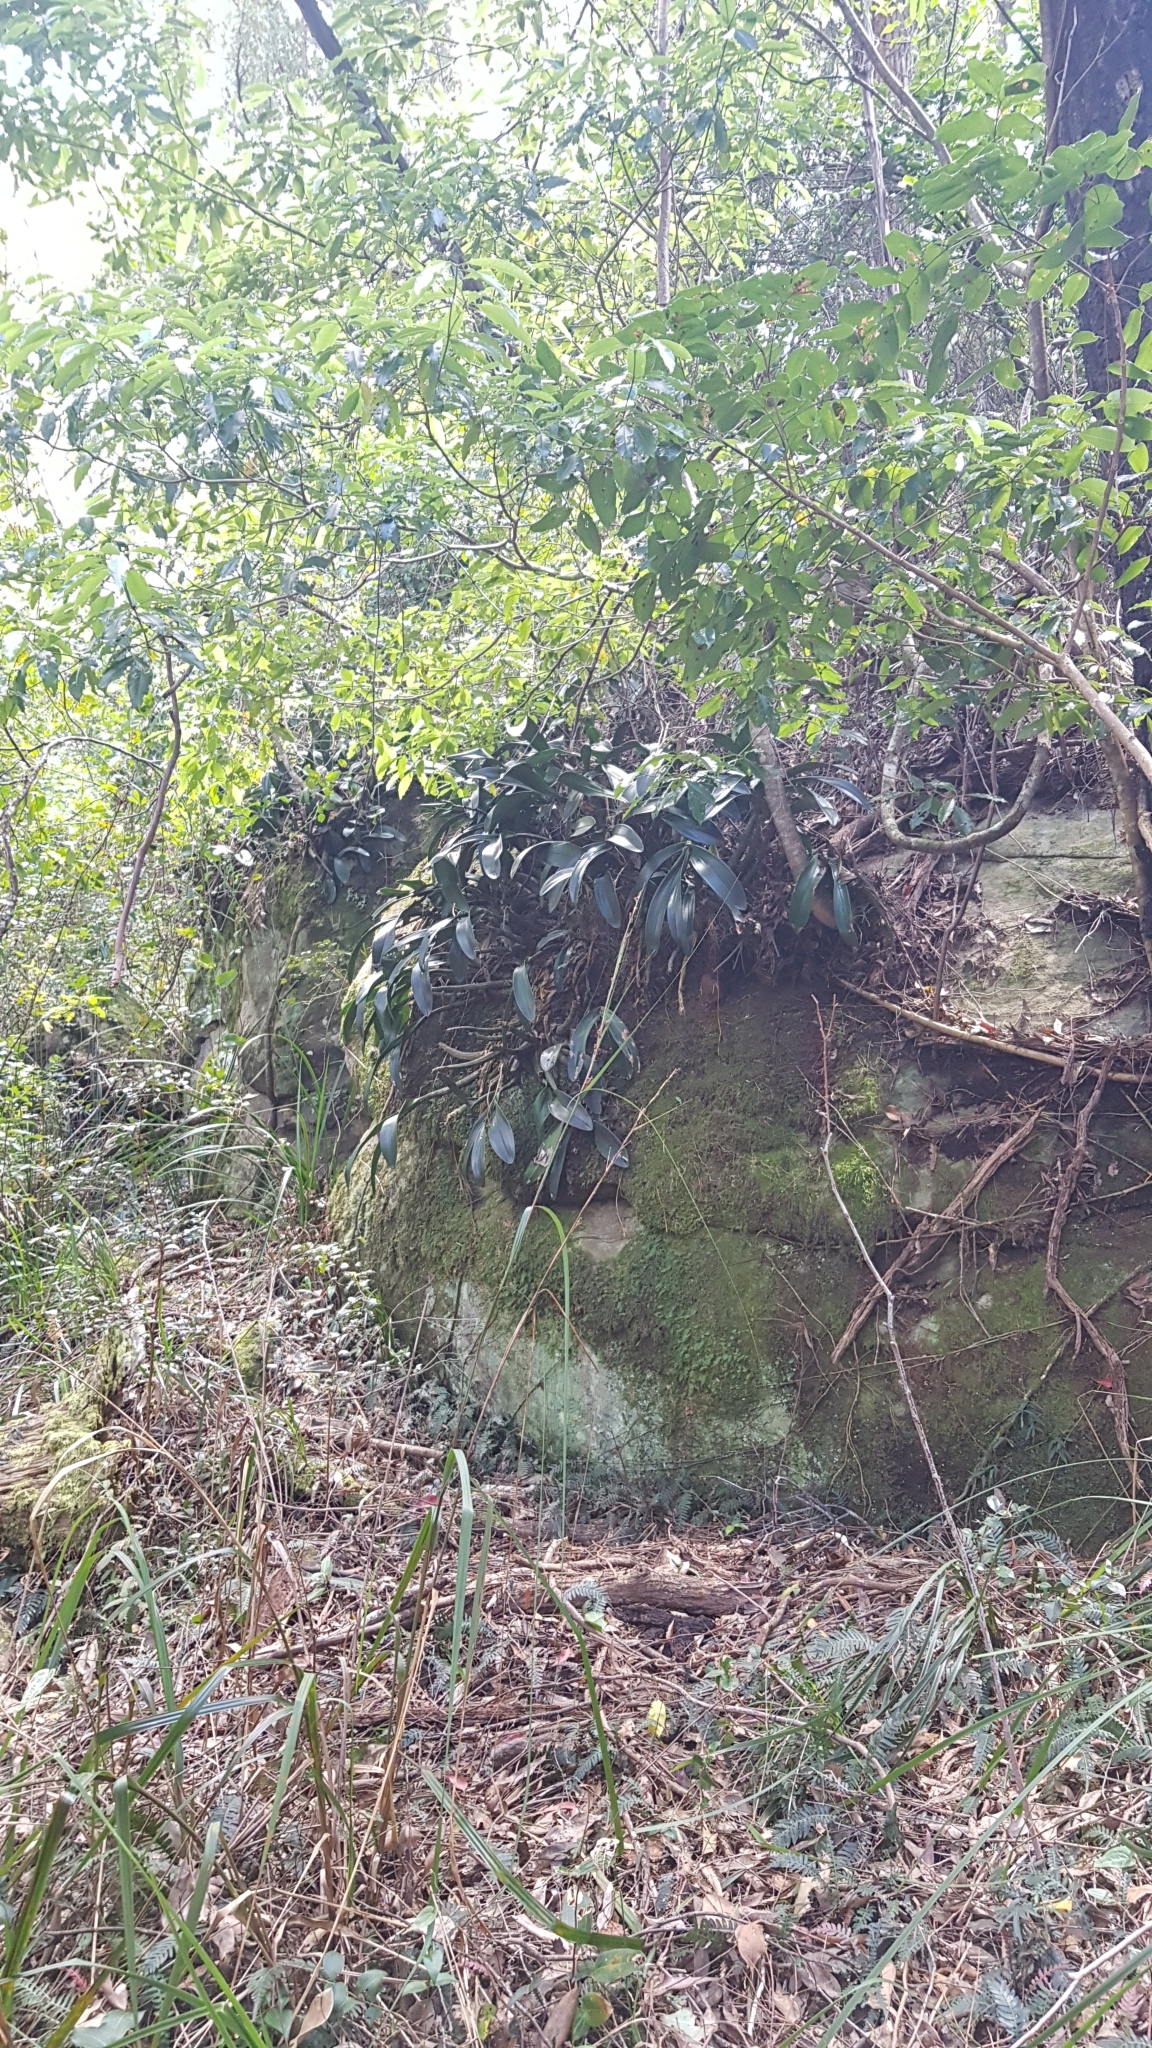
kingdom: Plantae
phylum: Tracheophyta
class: Liliopsida
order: Asparagales
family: Orchidaceae
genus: Dendrobium
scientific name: Dendrobium speciosum
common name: Rock-lily
